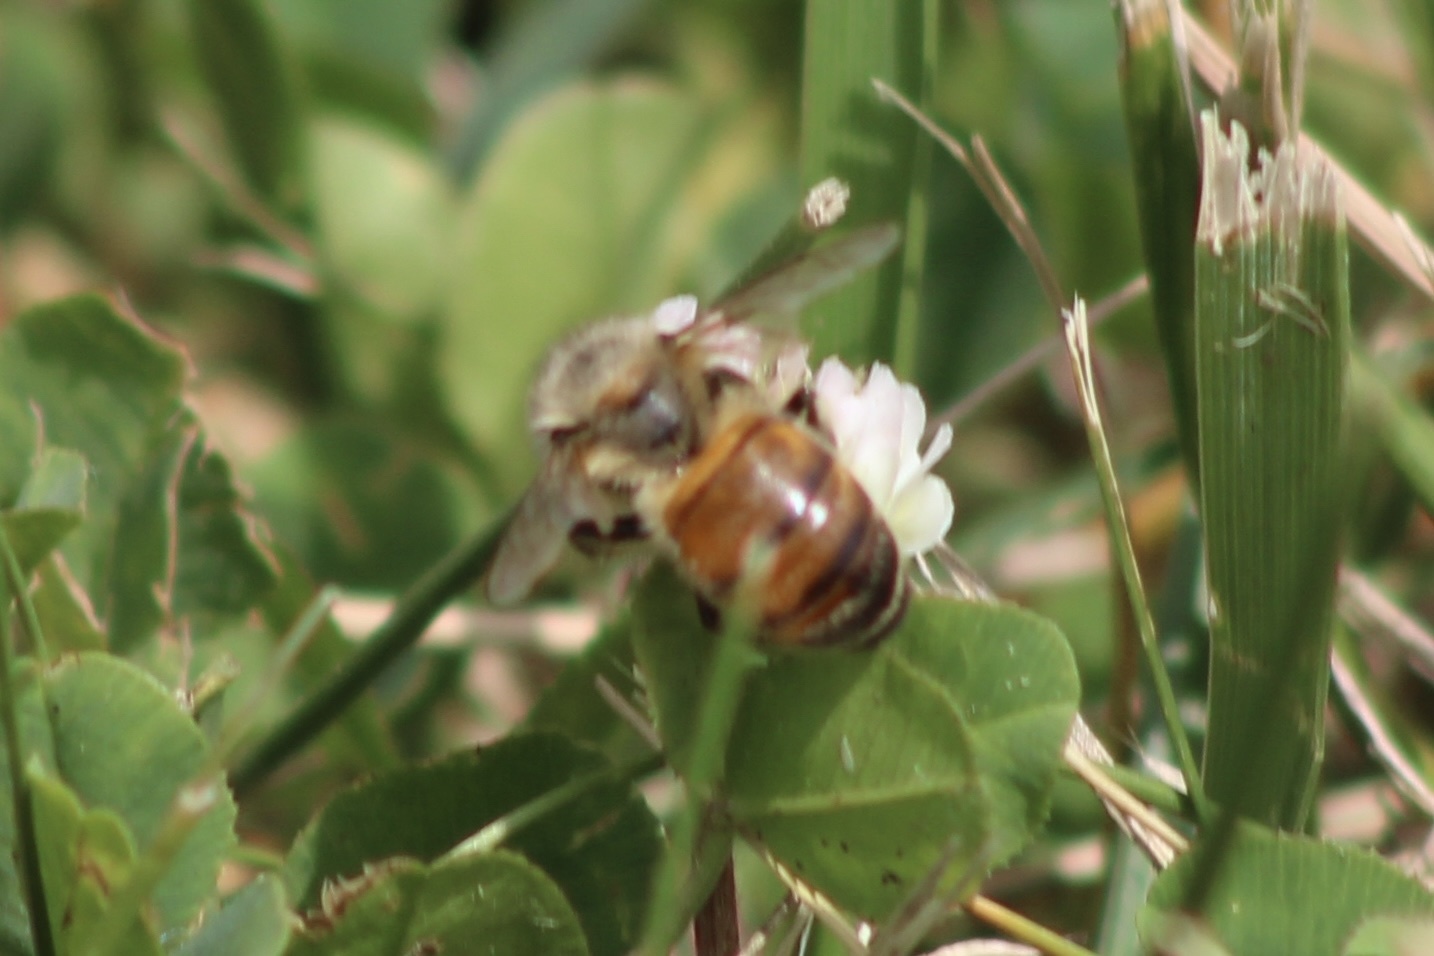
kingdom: Animalia
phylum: Arthropoda
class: Insecta
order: Hymenoptera
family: Apidae
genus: Apis
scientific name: Apis mellifera
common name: Honey bee
